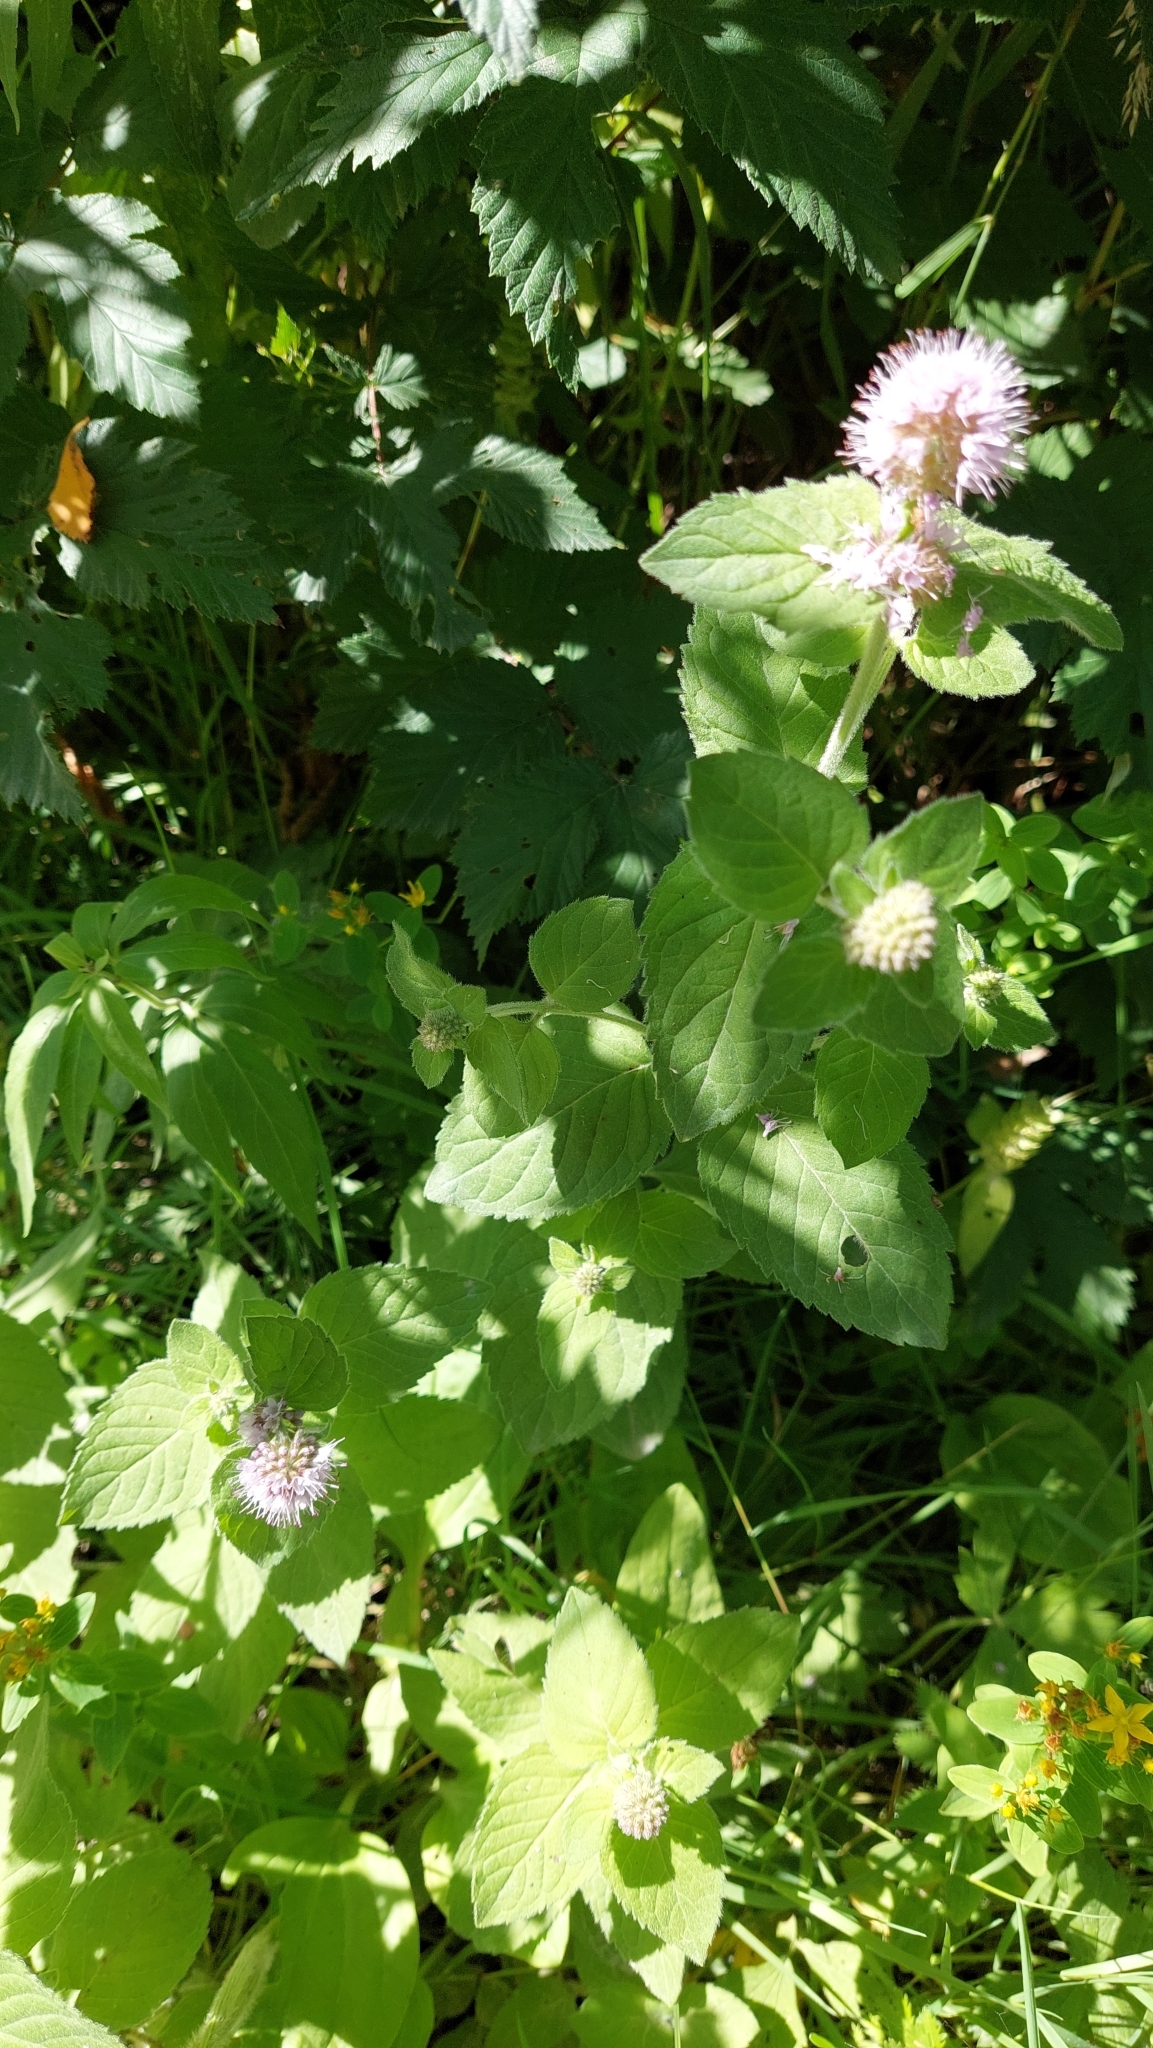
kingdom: Plantae
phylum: Tracheophyta
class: Magnoliopsida
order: Lamiales
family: Lamiaceae
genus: Mentha
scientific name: Mentha aquatica
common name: Water mint
